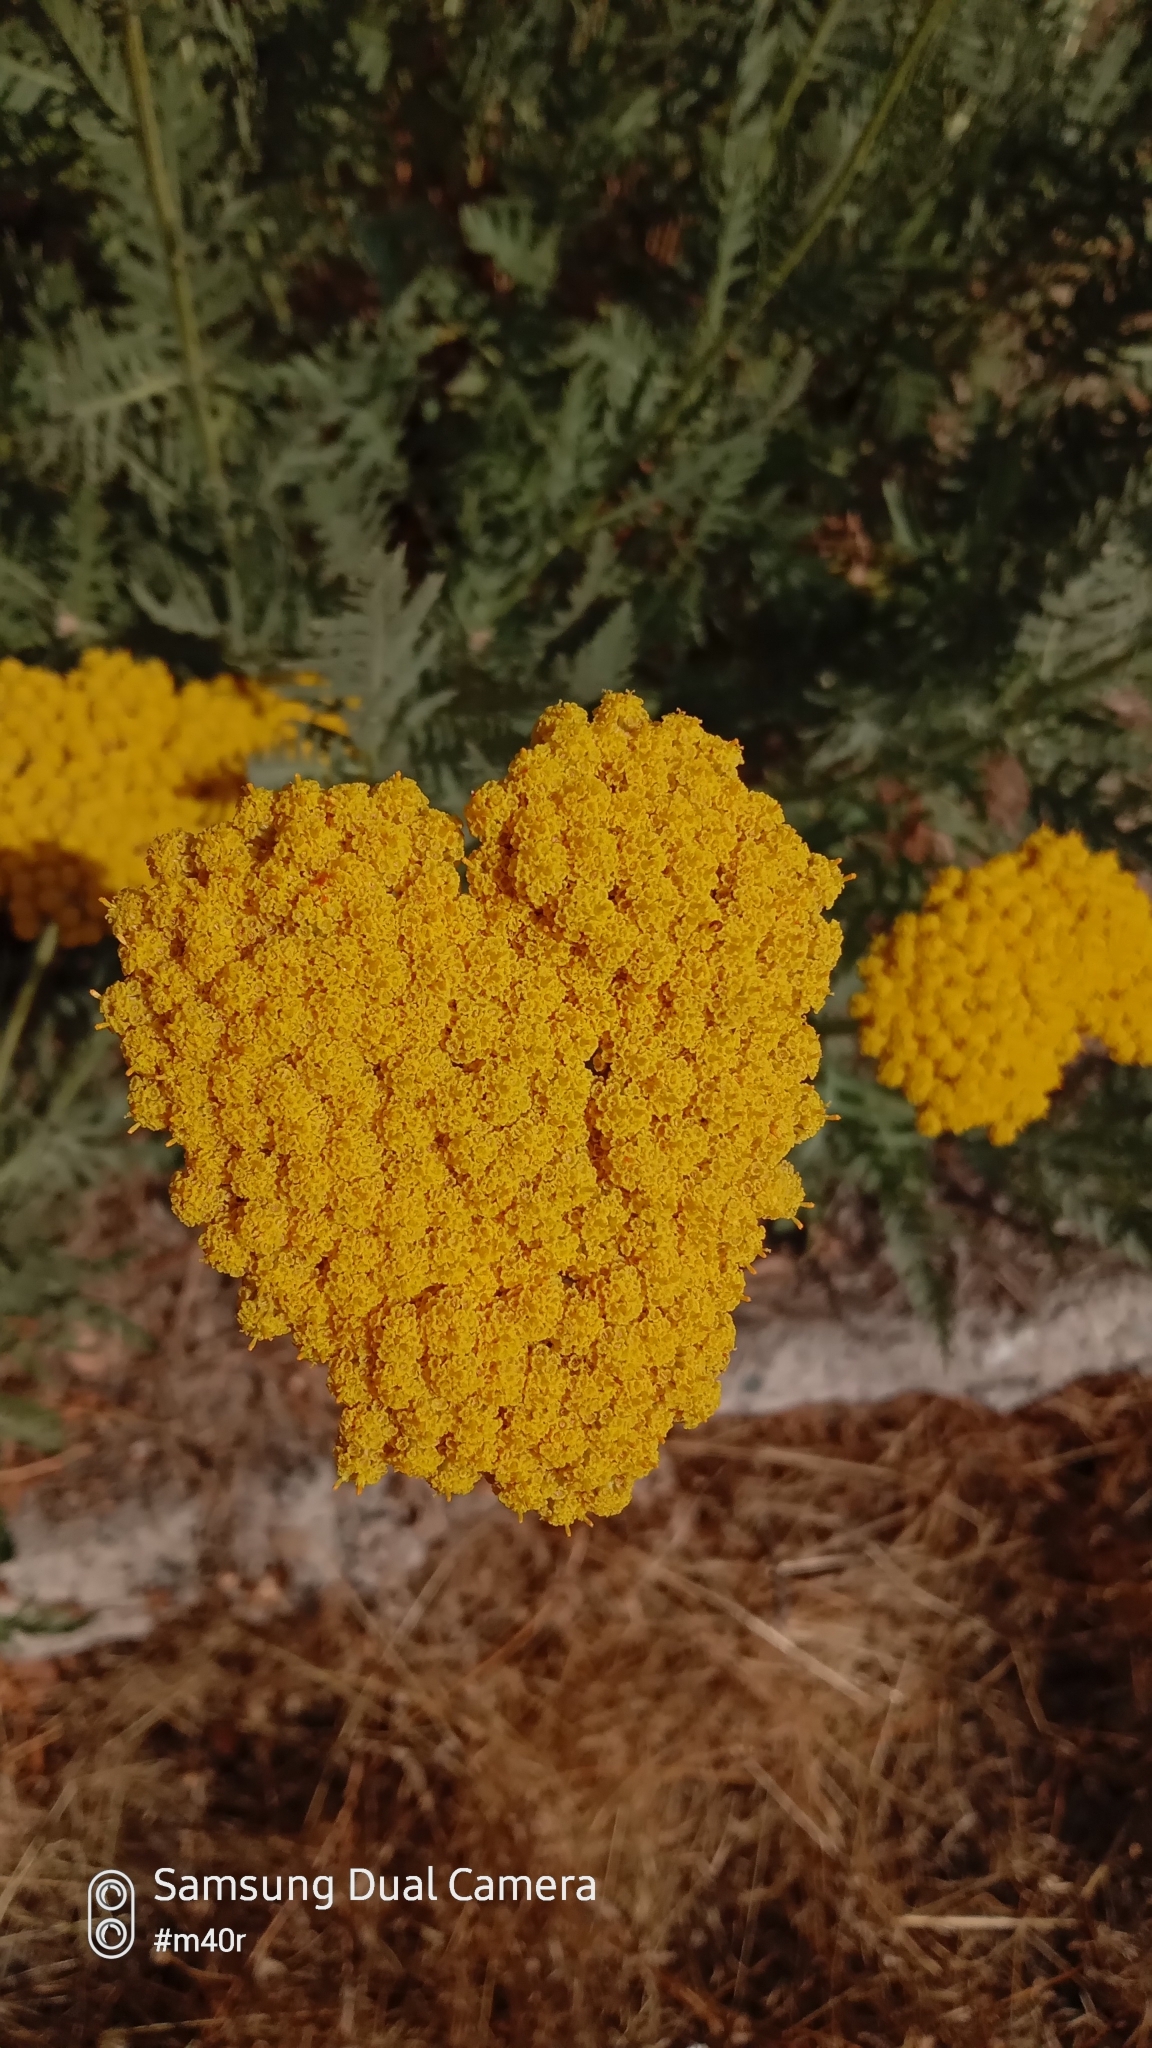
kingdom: Plantae
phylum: Tracheophyta
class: Magnoliopsida
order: Asterales
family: Asteraceae
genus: Achillea
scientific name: Achillea arabica
